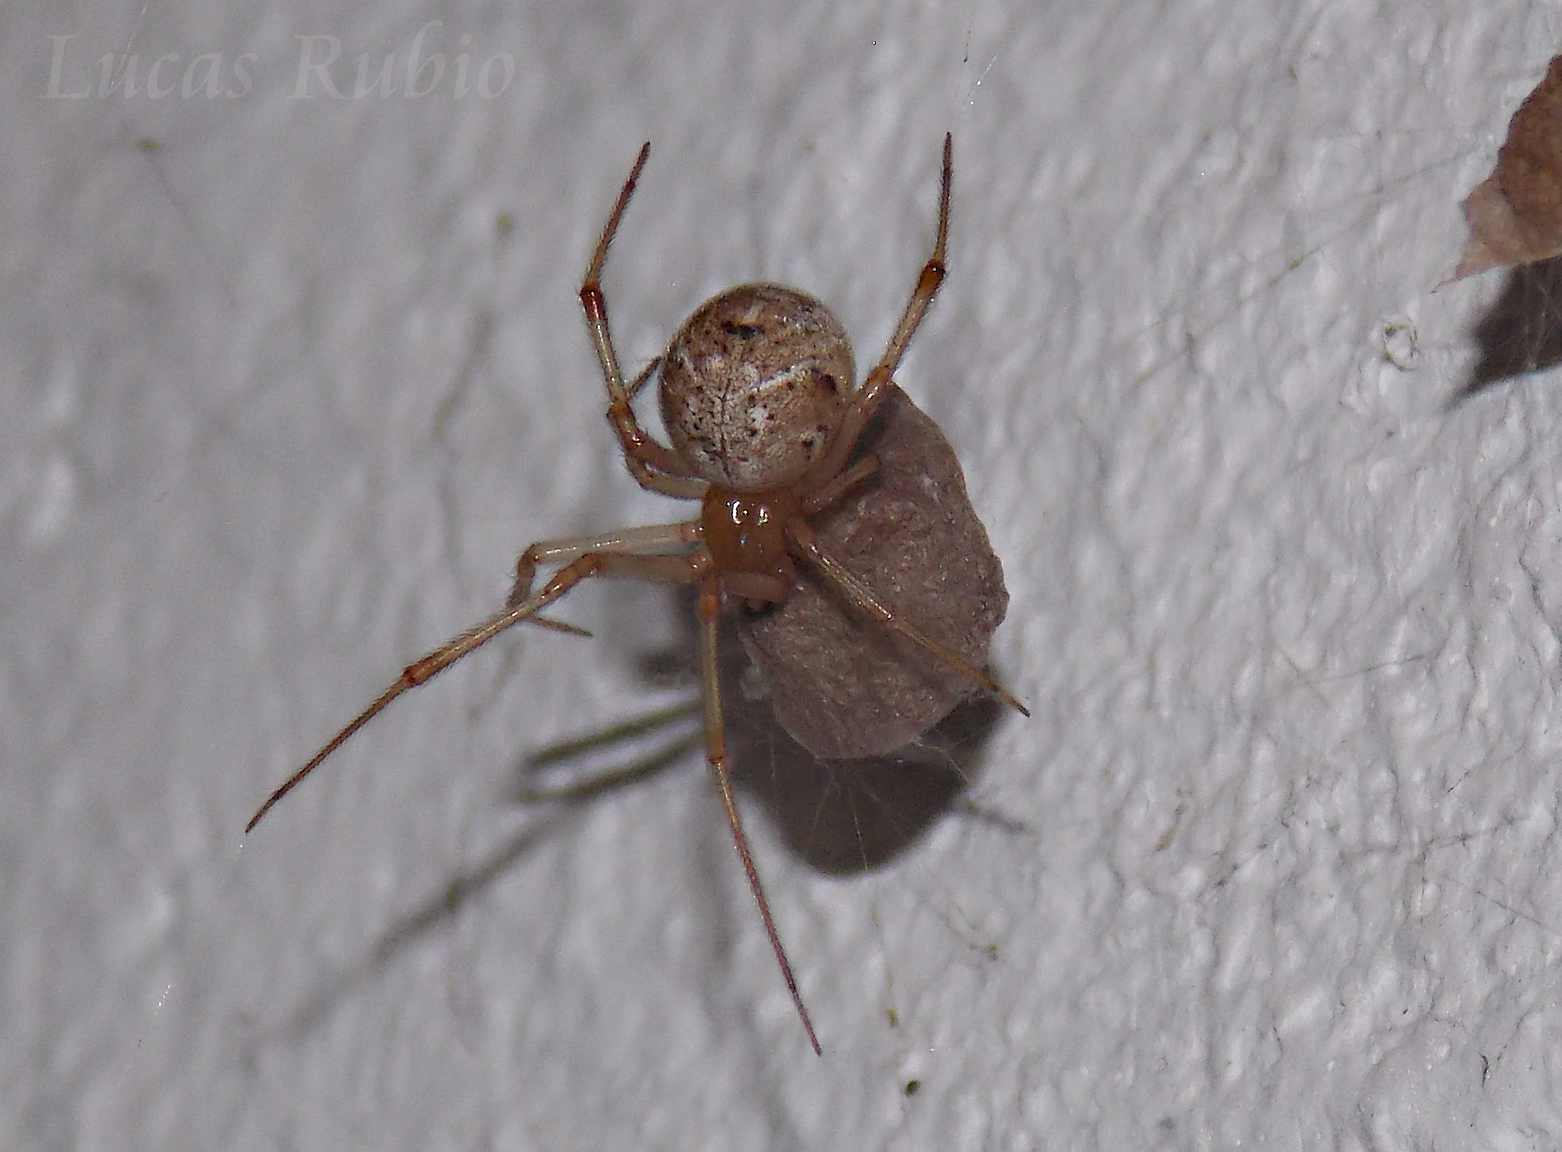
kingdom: Animalia
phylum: Arthropoda
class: Arachnida
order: Araneae
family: Theridiidae
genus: Parasteatoda
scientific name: Parasteatoda tepidariorum
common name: Common house spider
